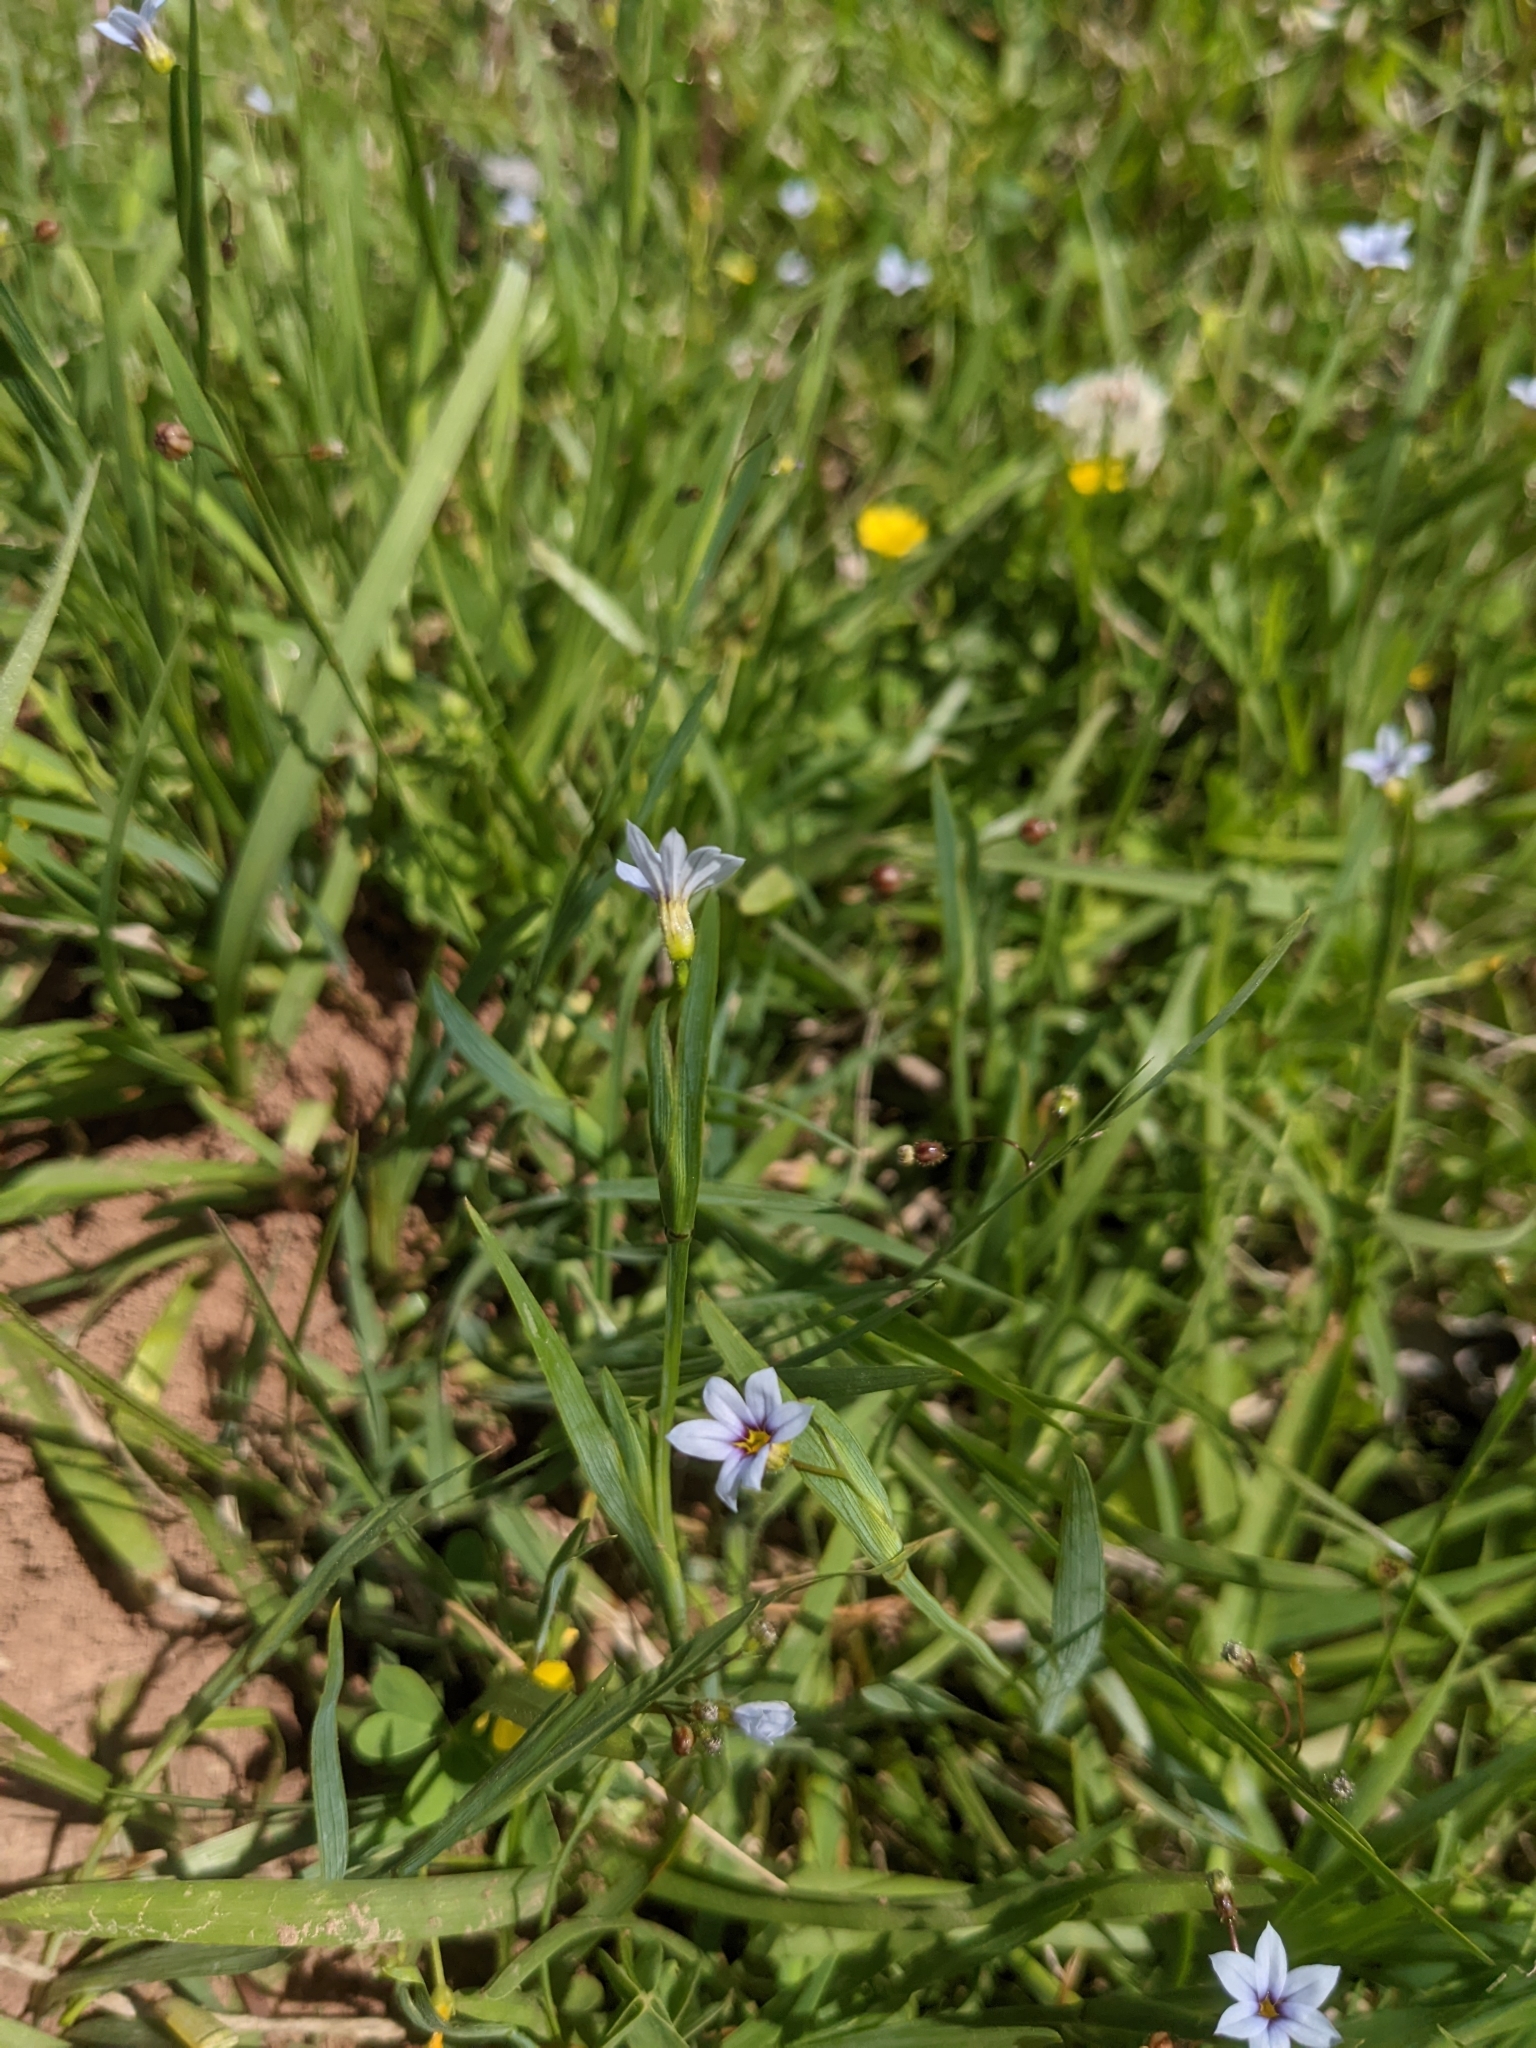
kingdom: Plantae
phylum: Tracheophyta
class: Liliopsida
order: Asparagales
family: Iridaceae
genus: Sisyrinchium
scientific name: Sisyrinchium micranthum
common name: Bermuda pigroot
